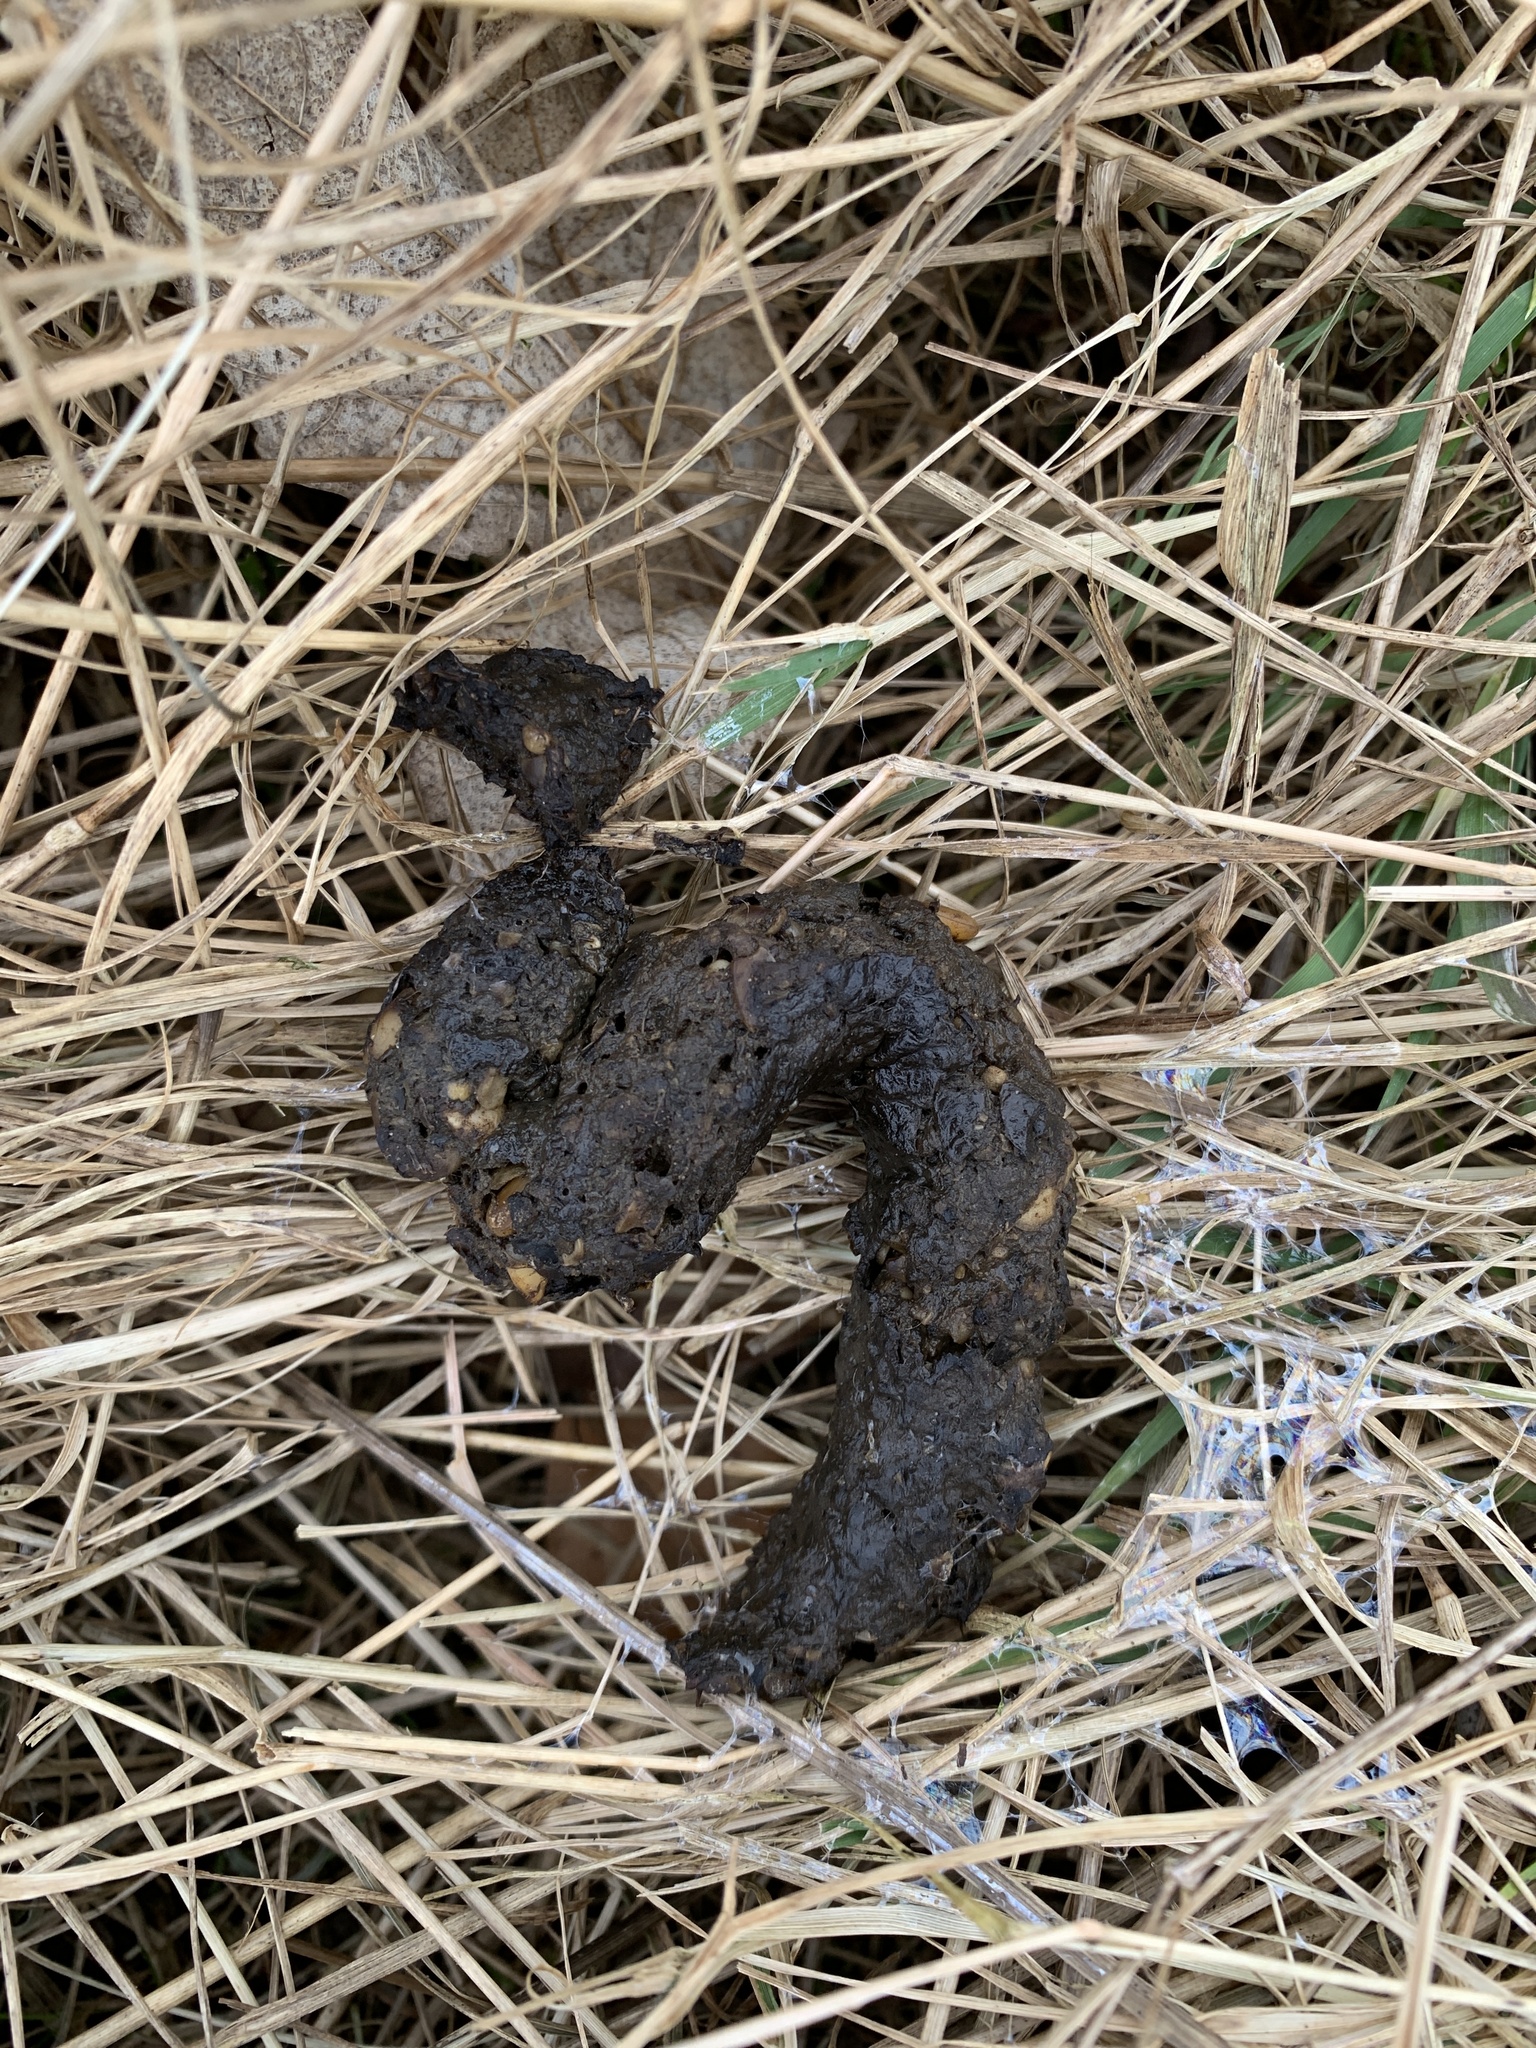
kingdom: Animalia
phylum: Chordata
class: Mammalia
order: Carnivora
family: Felidae
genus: Felis
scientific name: Felis catus
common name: Domestic cat
